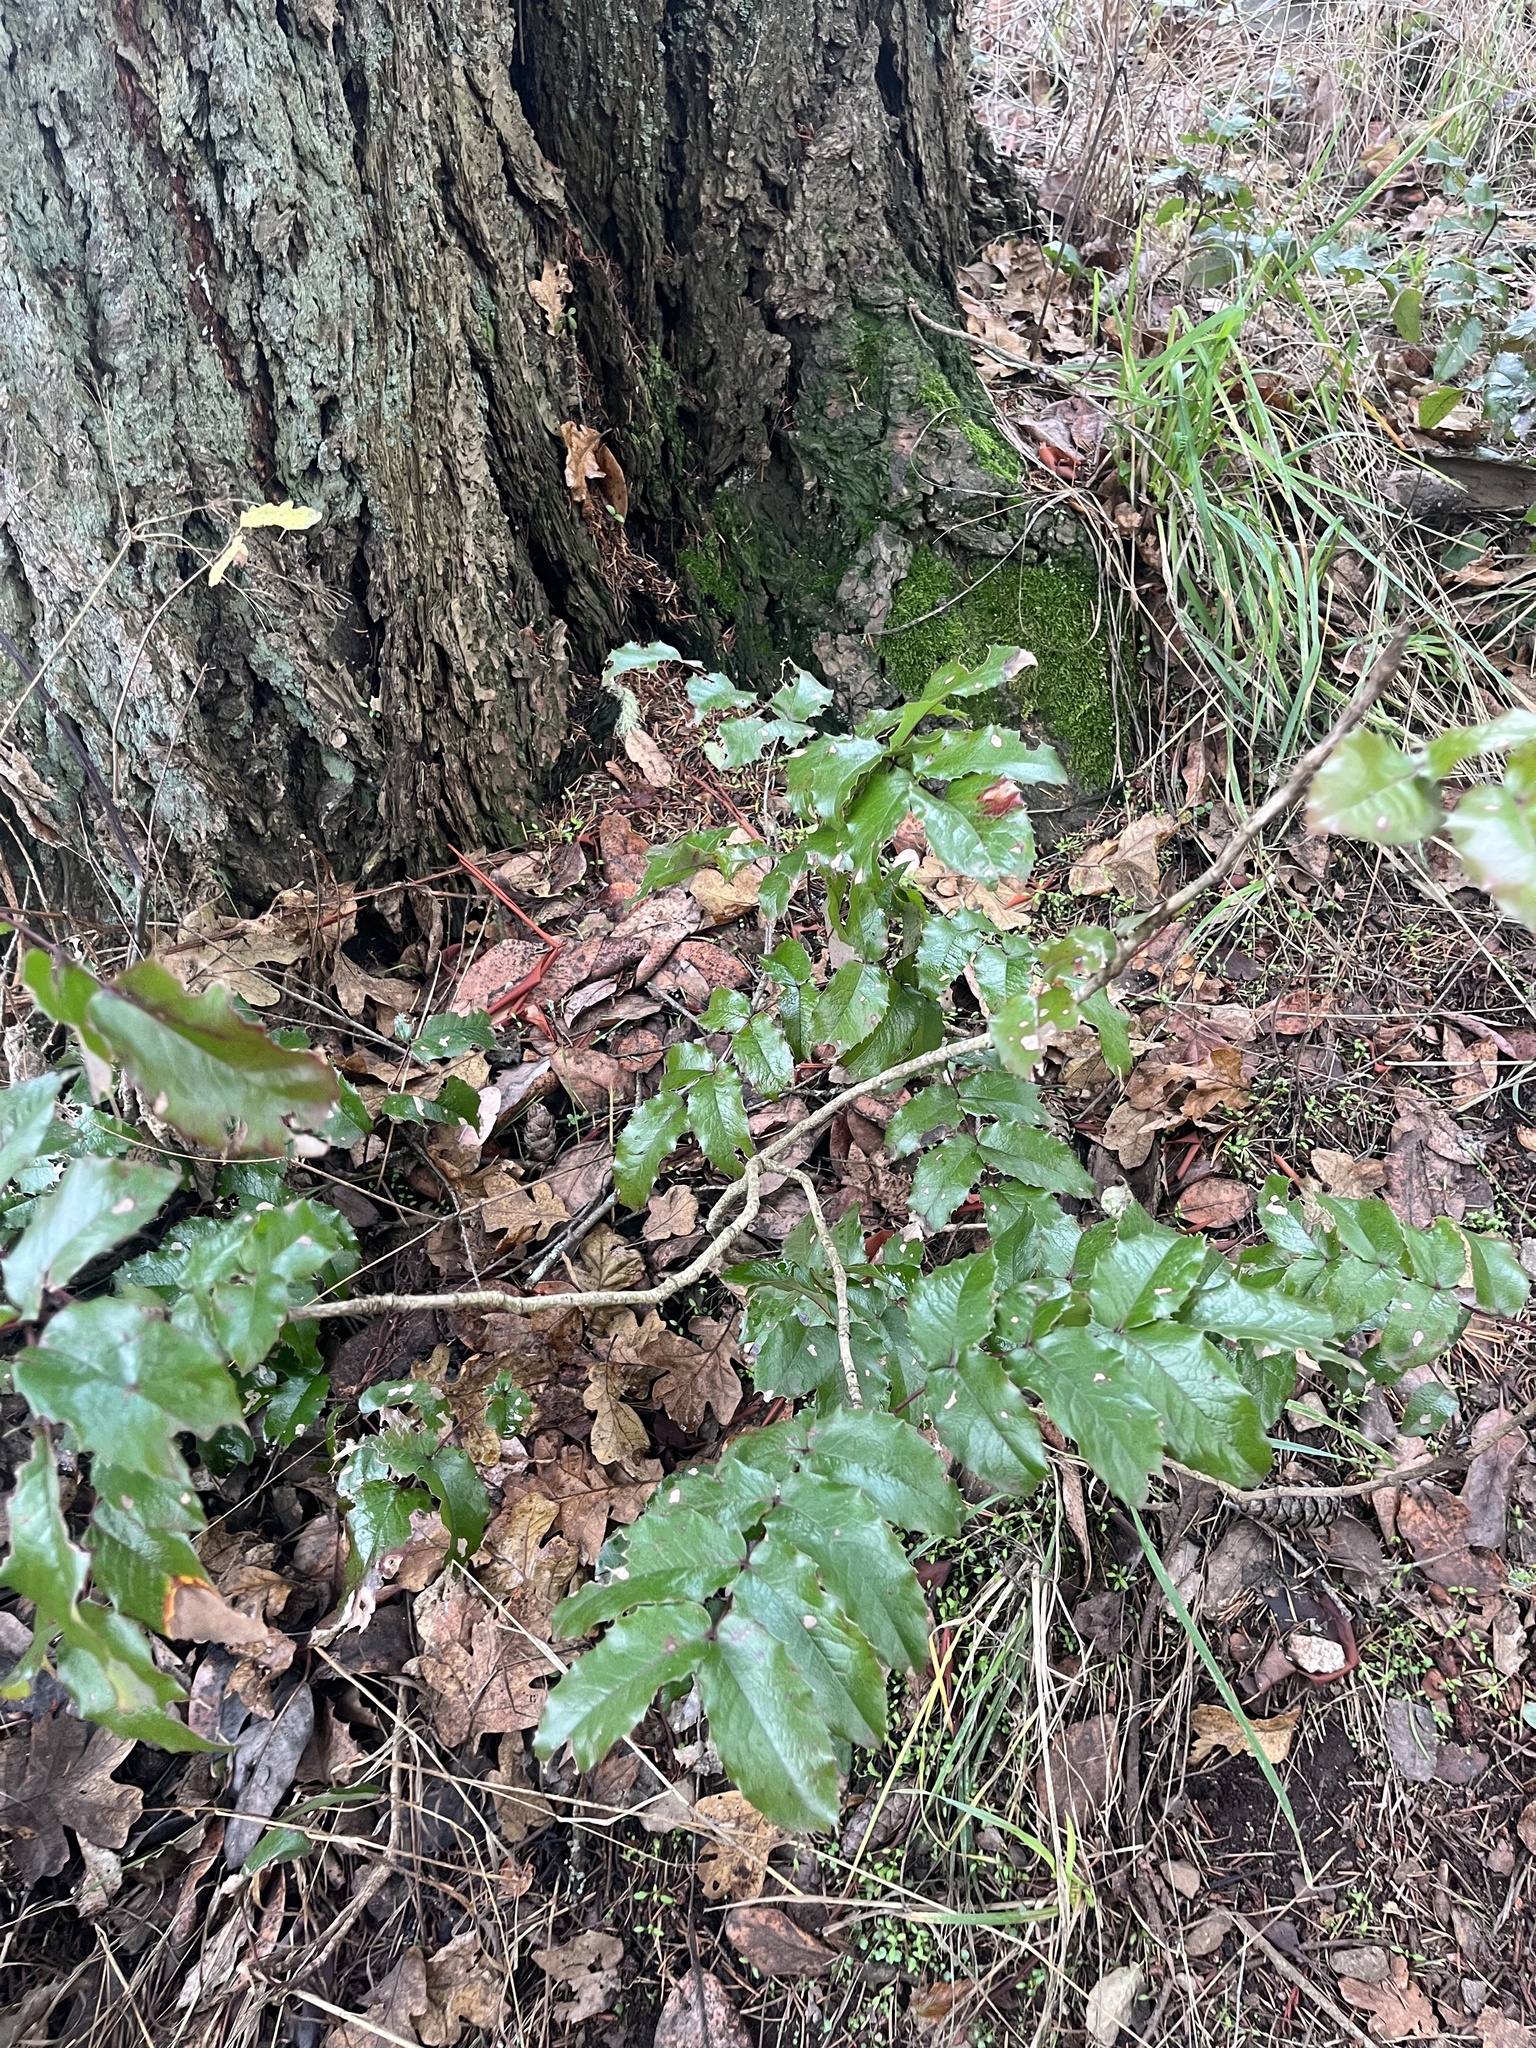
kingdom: Plantae
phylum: Tracheophyta
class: Magnoliopsida
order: Ranunculales
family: Berberidaceae
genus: Mahonia
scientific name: Mahonia aquifolium
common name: Oregon-grape
